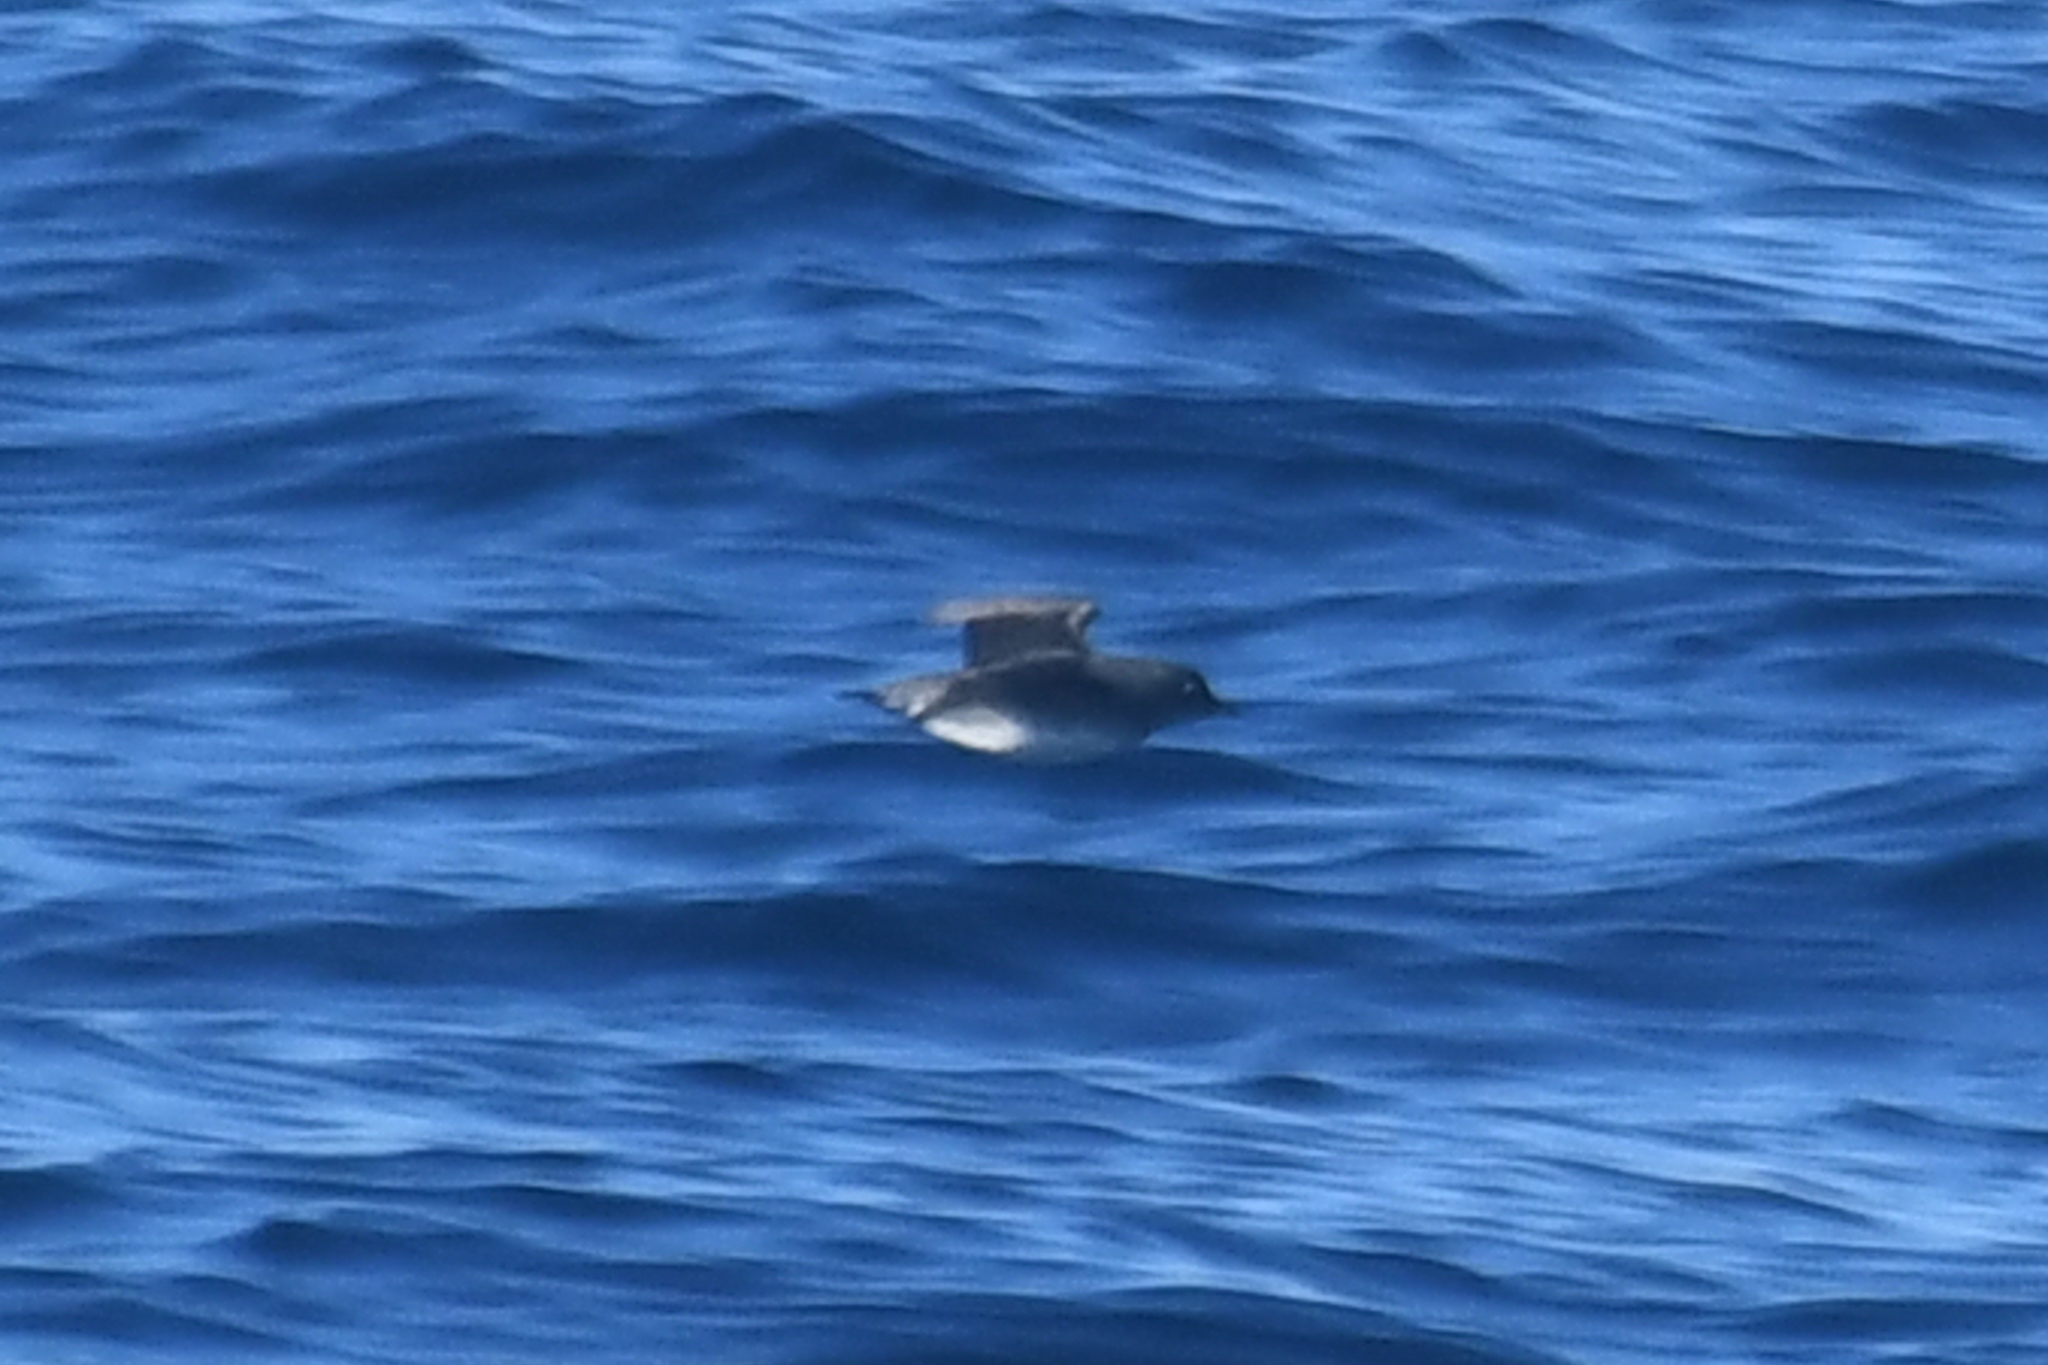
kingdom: Animalia
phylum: Chordata
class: Aves
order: Charadriiformes
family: Alcidae
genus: Ptychoramphus
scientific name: Ptychoramphus aleuticus
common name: Cassin's auklet
